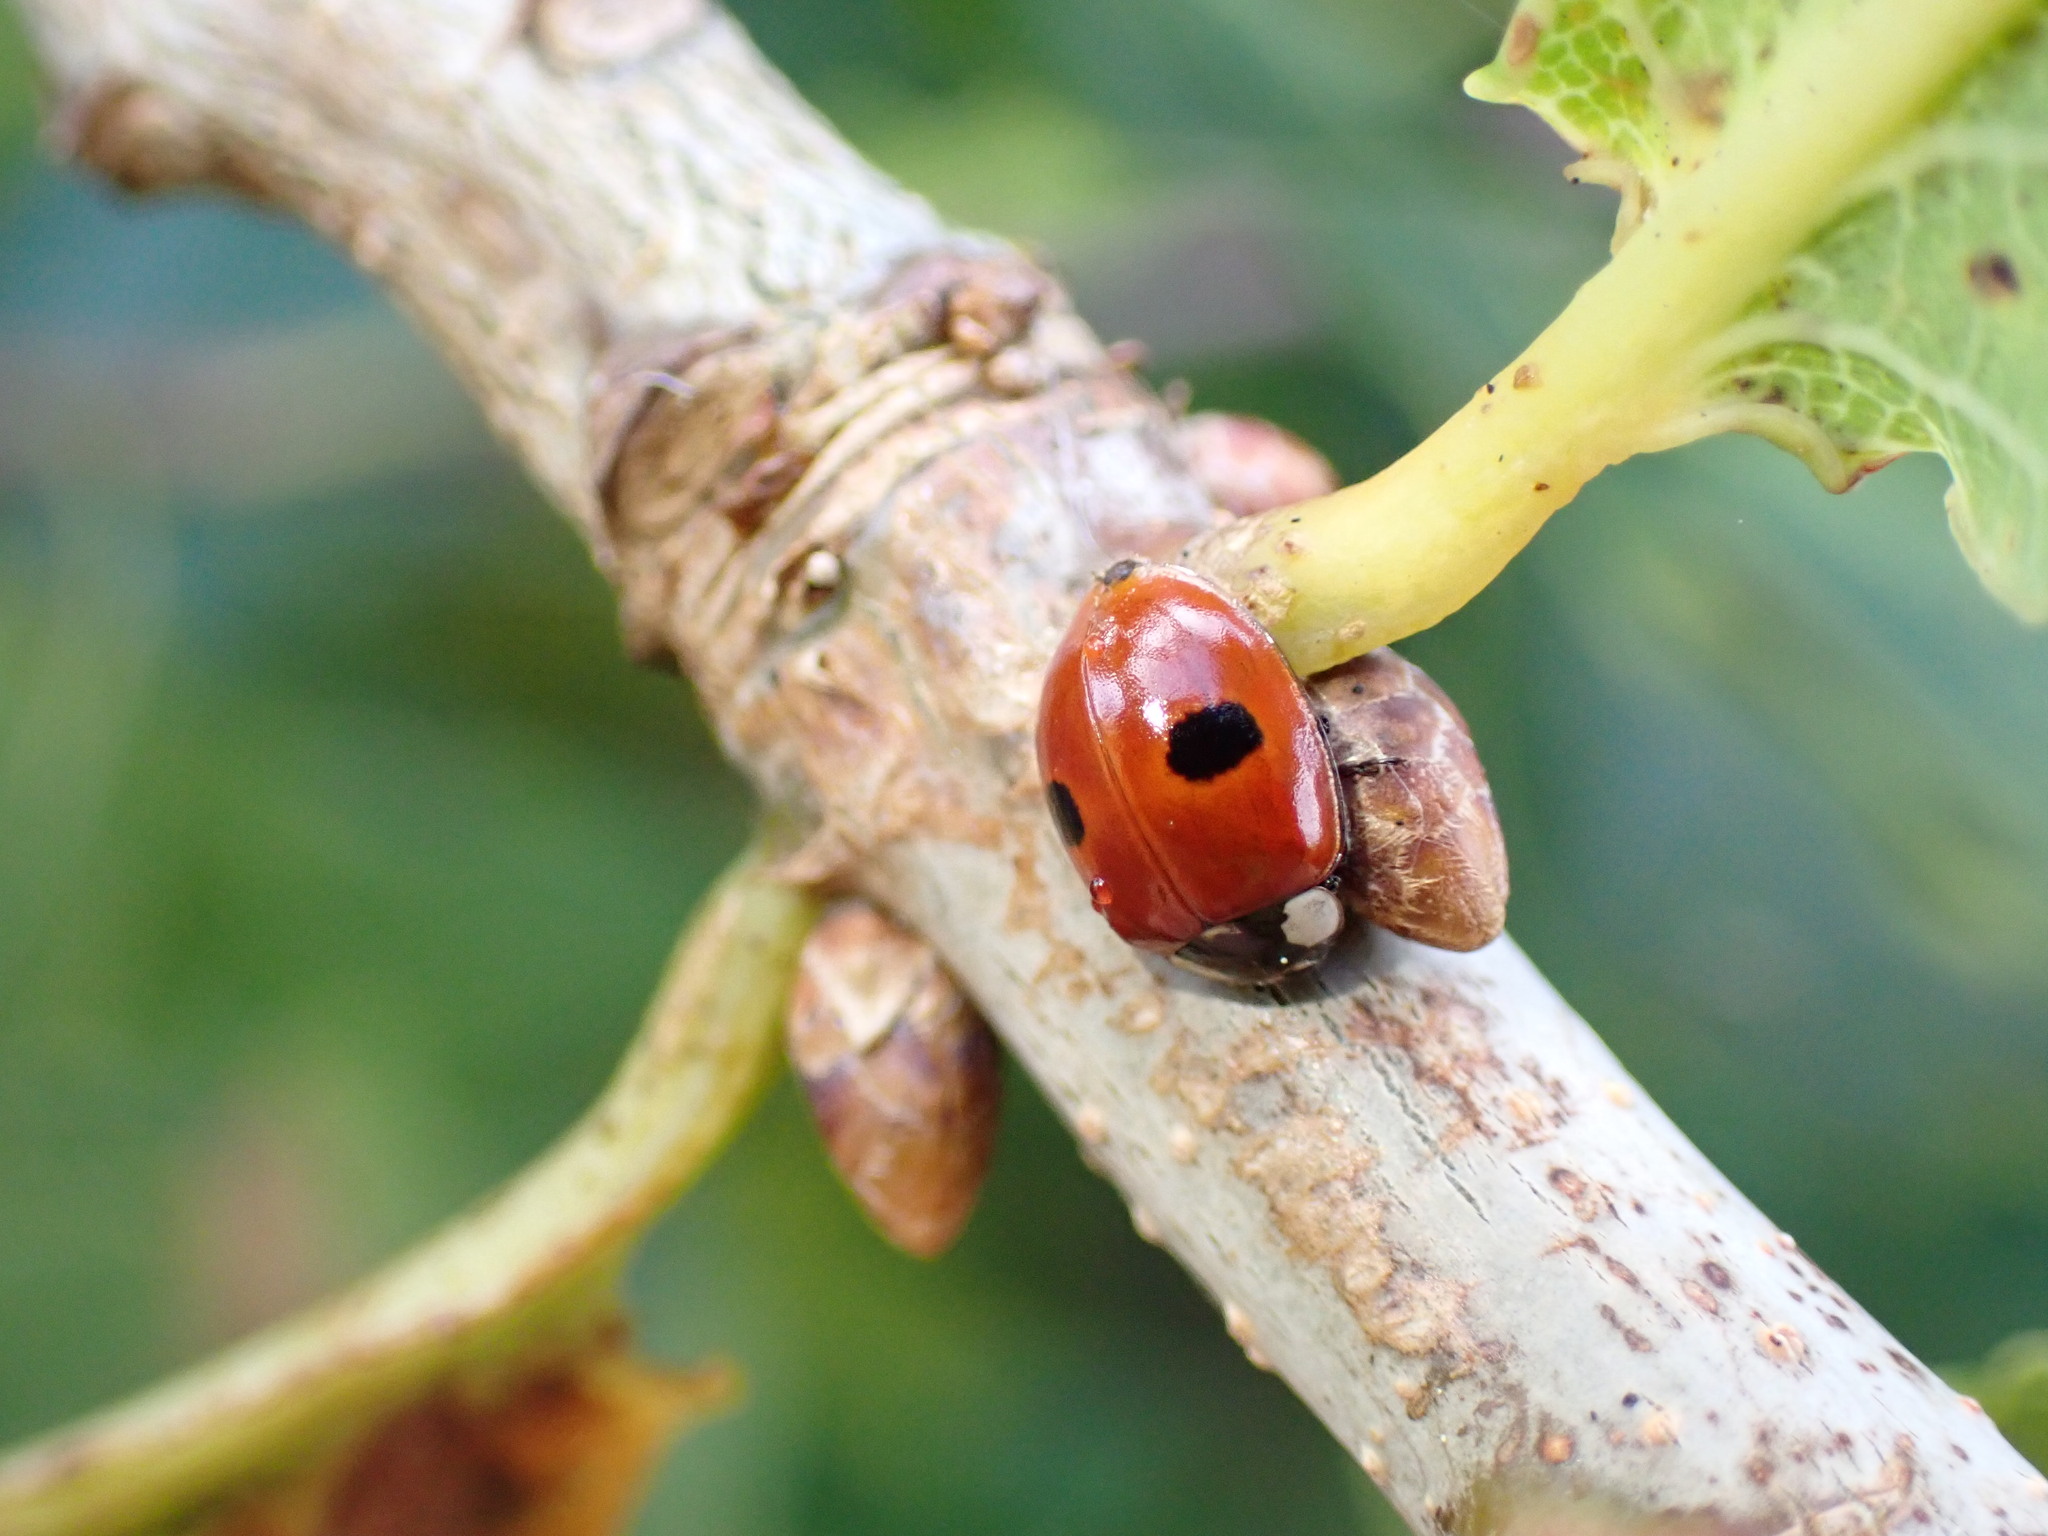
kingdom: Animalia
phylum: Arthropoda
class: Insecta
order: Coleoptera
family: Coccinellidae
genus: Adalia
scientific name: Adalia bipunctata
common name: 2-spot ladybird
